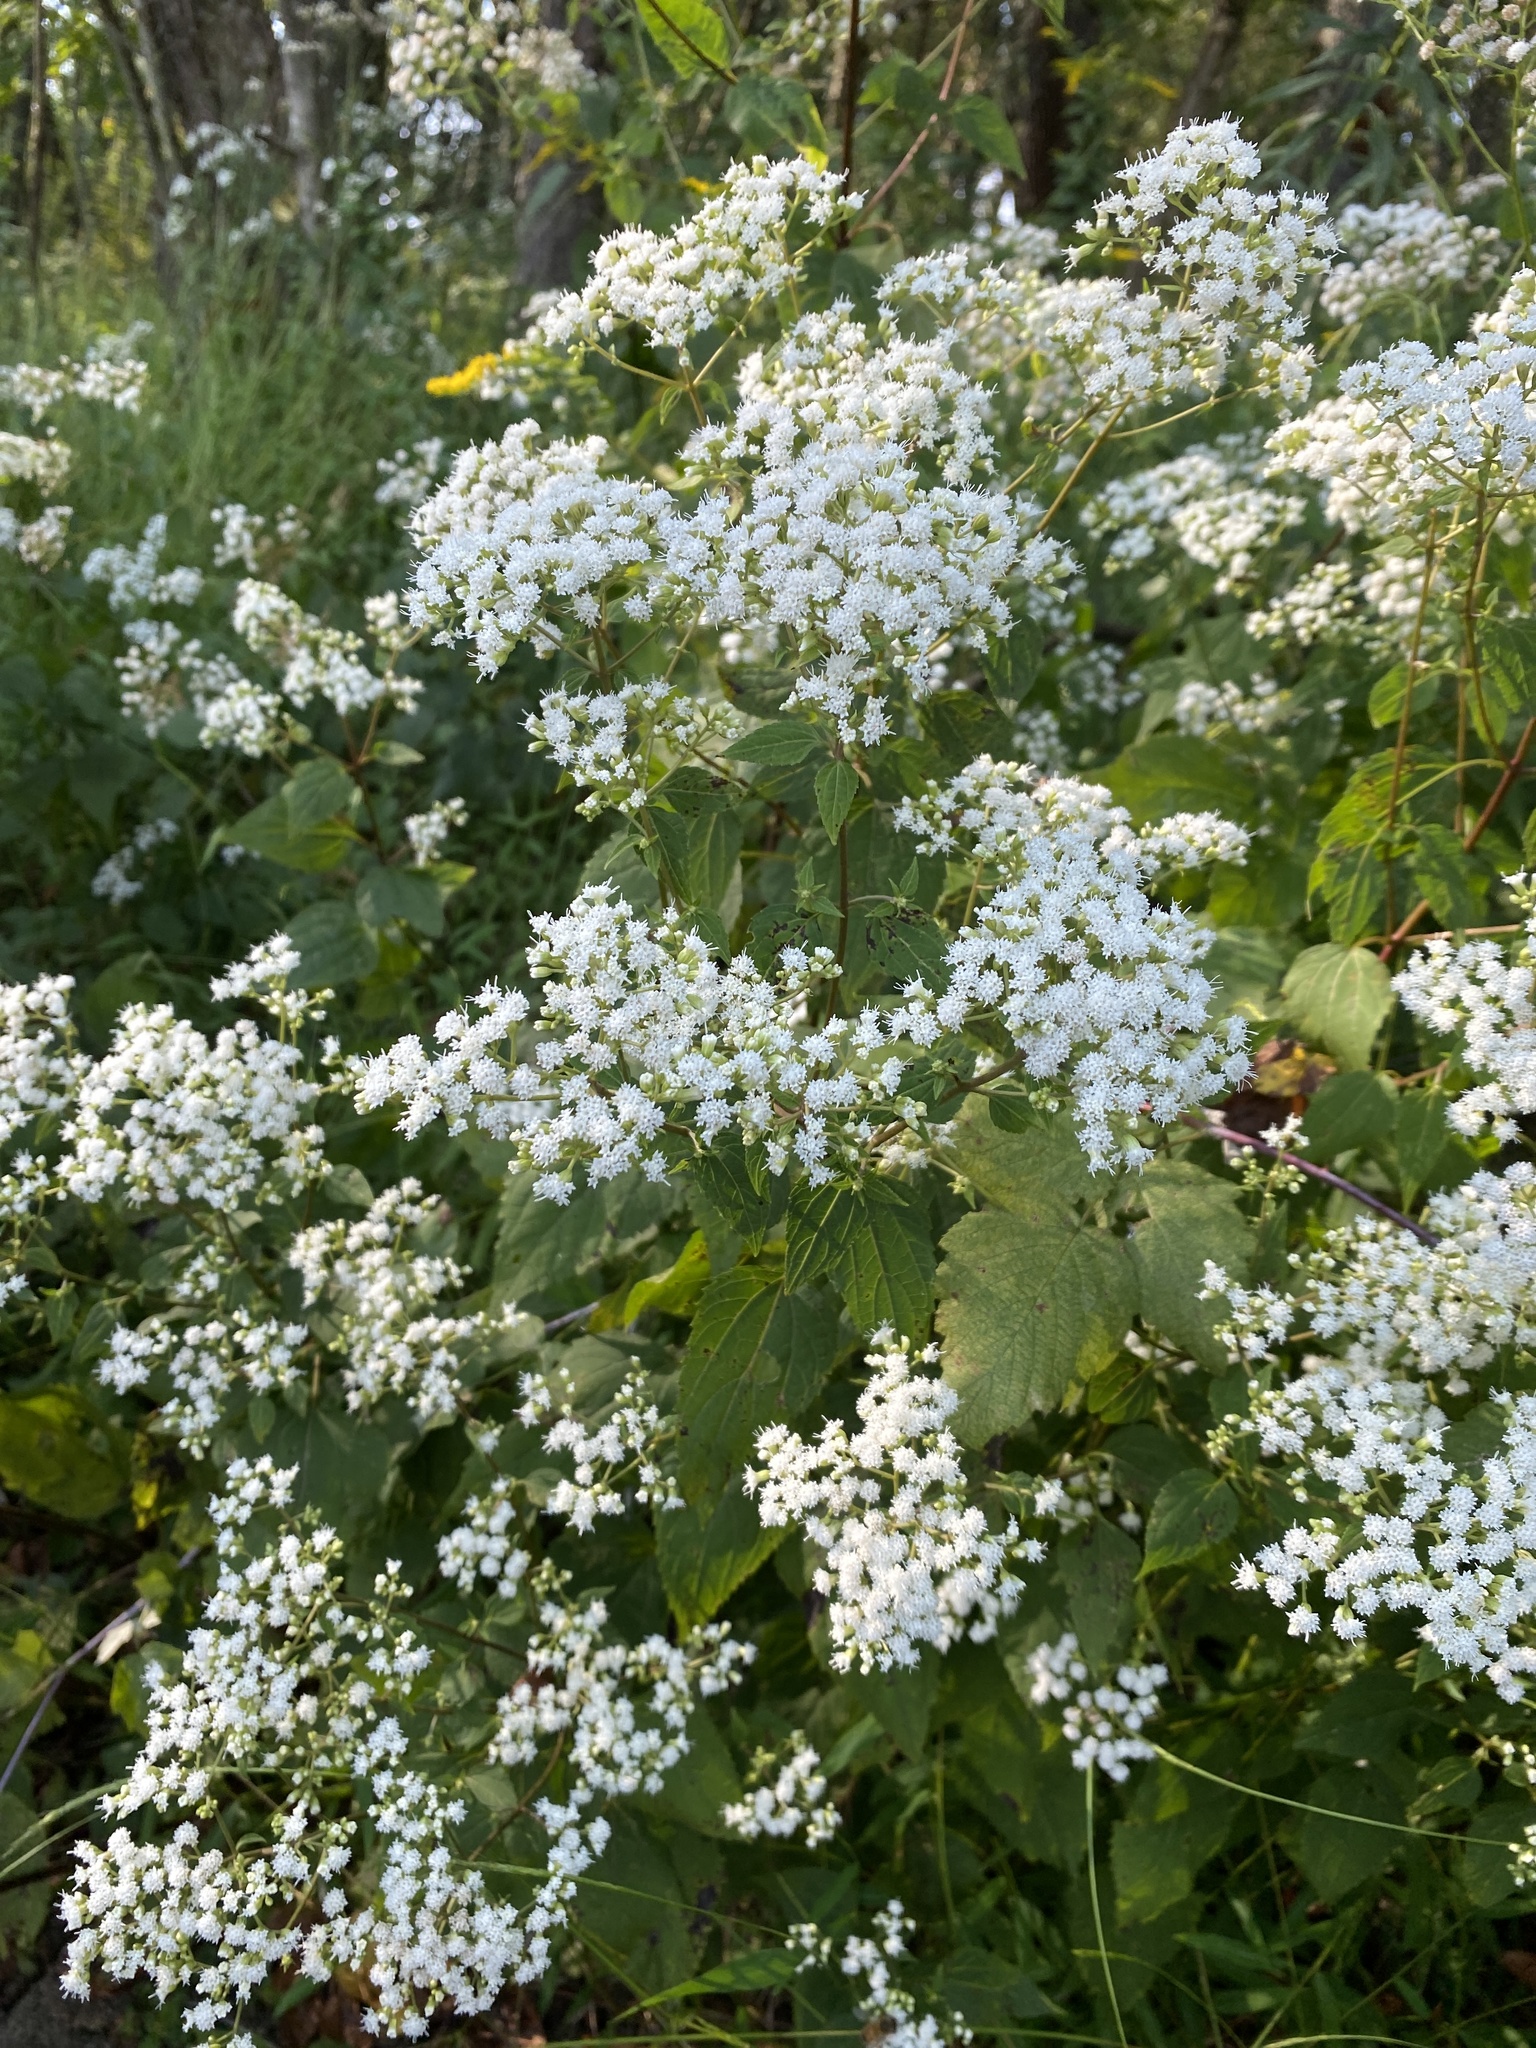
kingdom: Plantae
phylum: Tracheophyta
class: Magnoliopsida
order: Asterales
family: Asteraceae
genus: Ageratina
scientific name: Ageratina altissima
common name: White snakeroot
